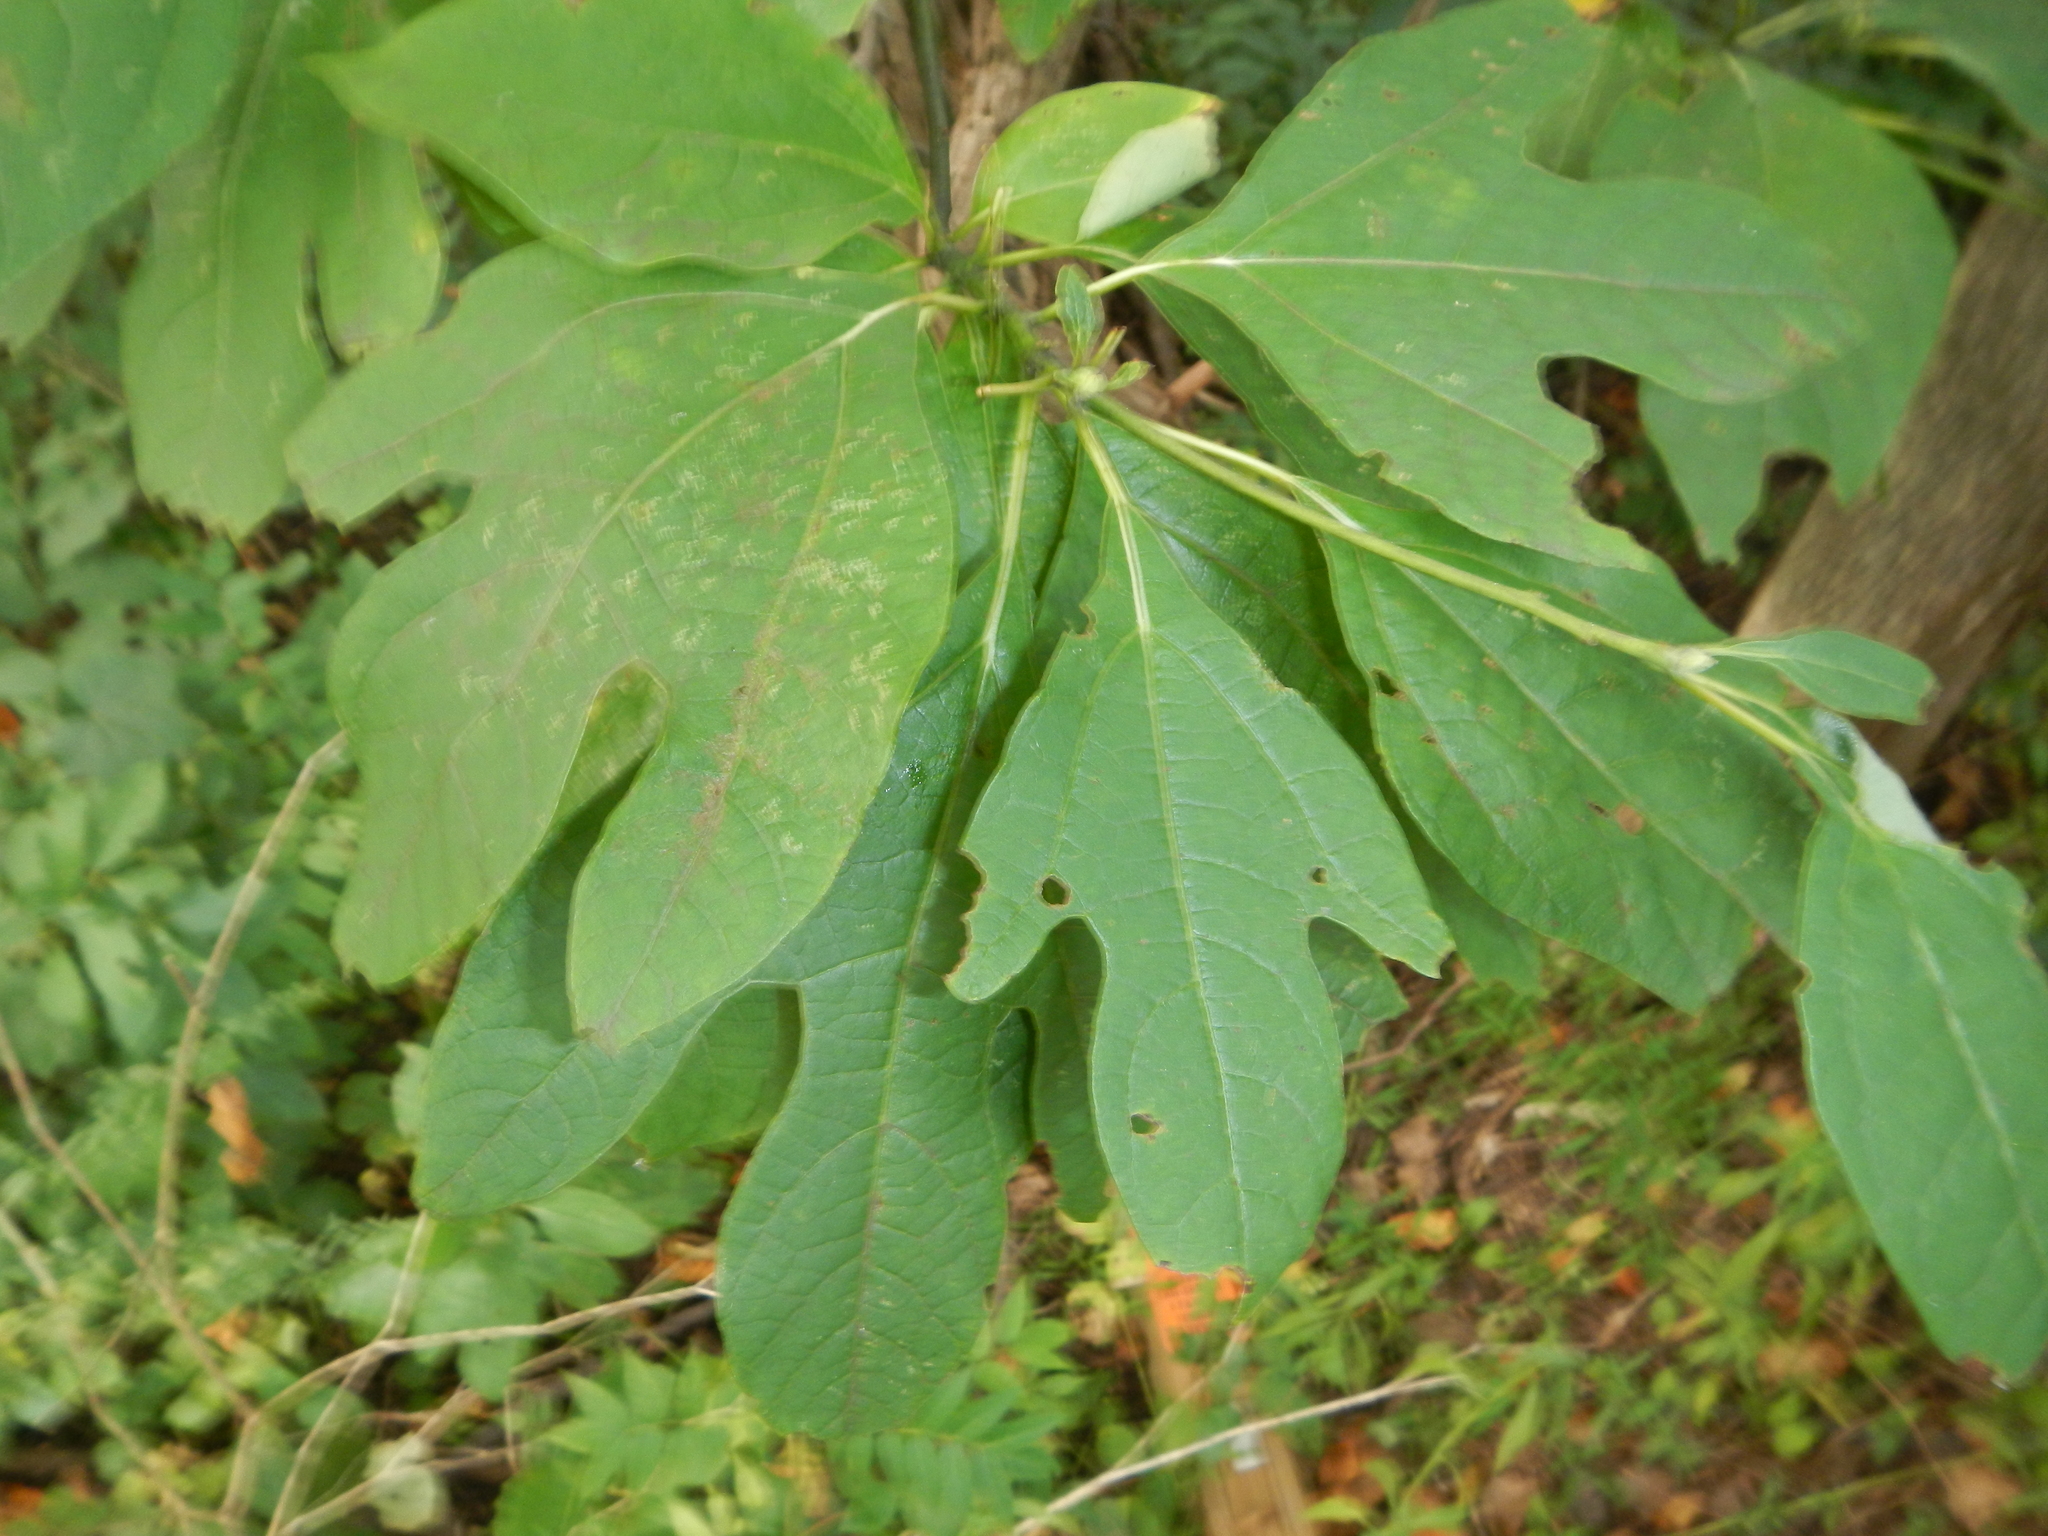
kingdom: Plantae
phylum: Tracheophyta
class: Magnoliopsida
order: Laurales
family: Lauraceae
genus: Sassafras
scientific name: Sassafras albidum
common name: Sassafras
